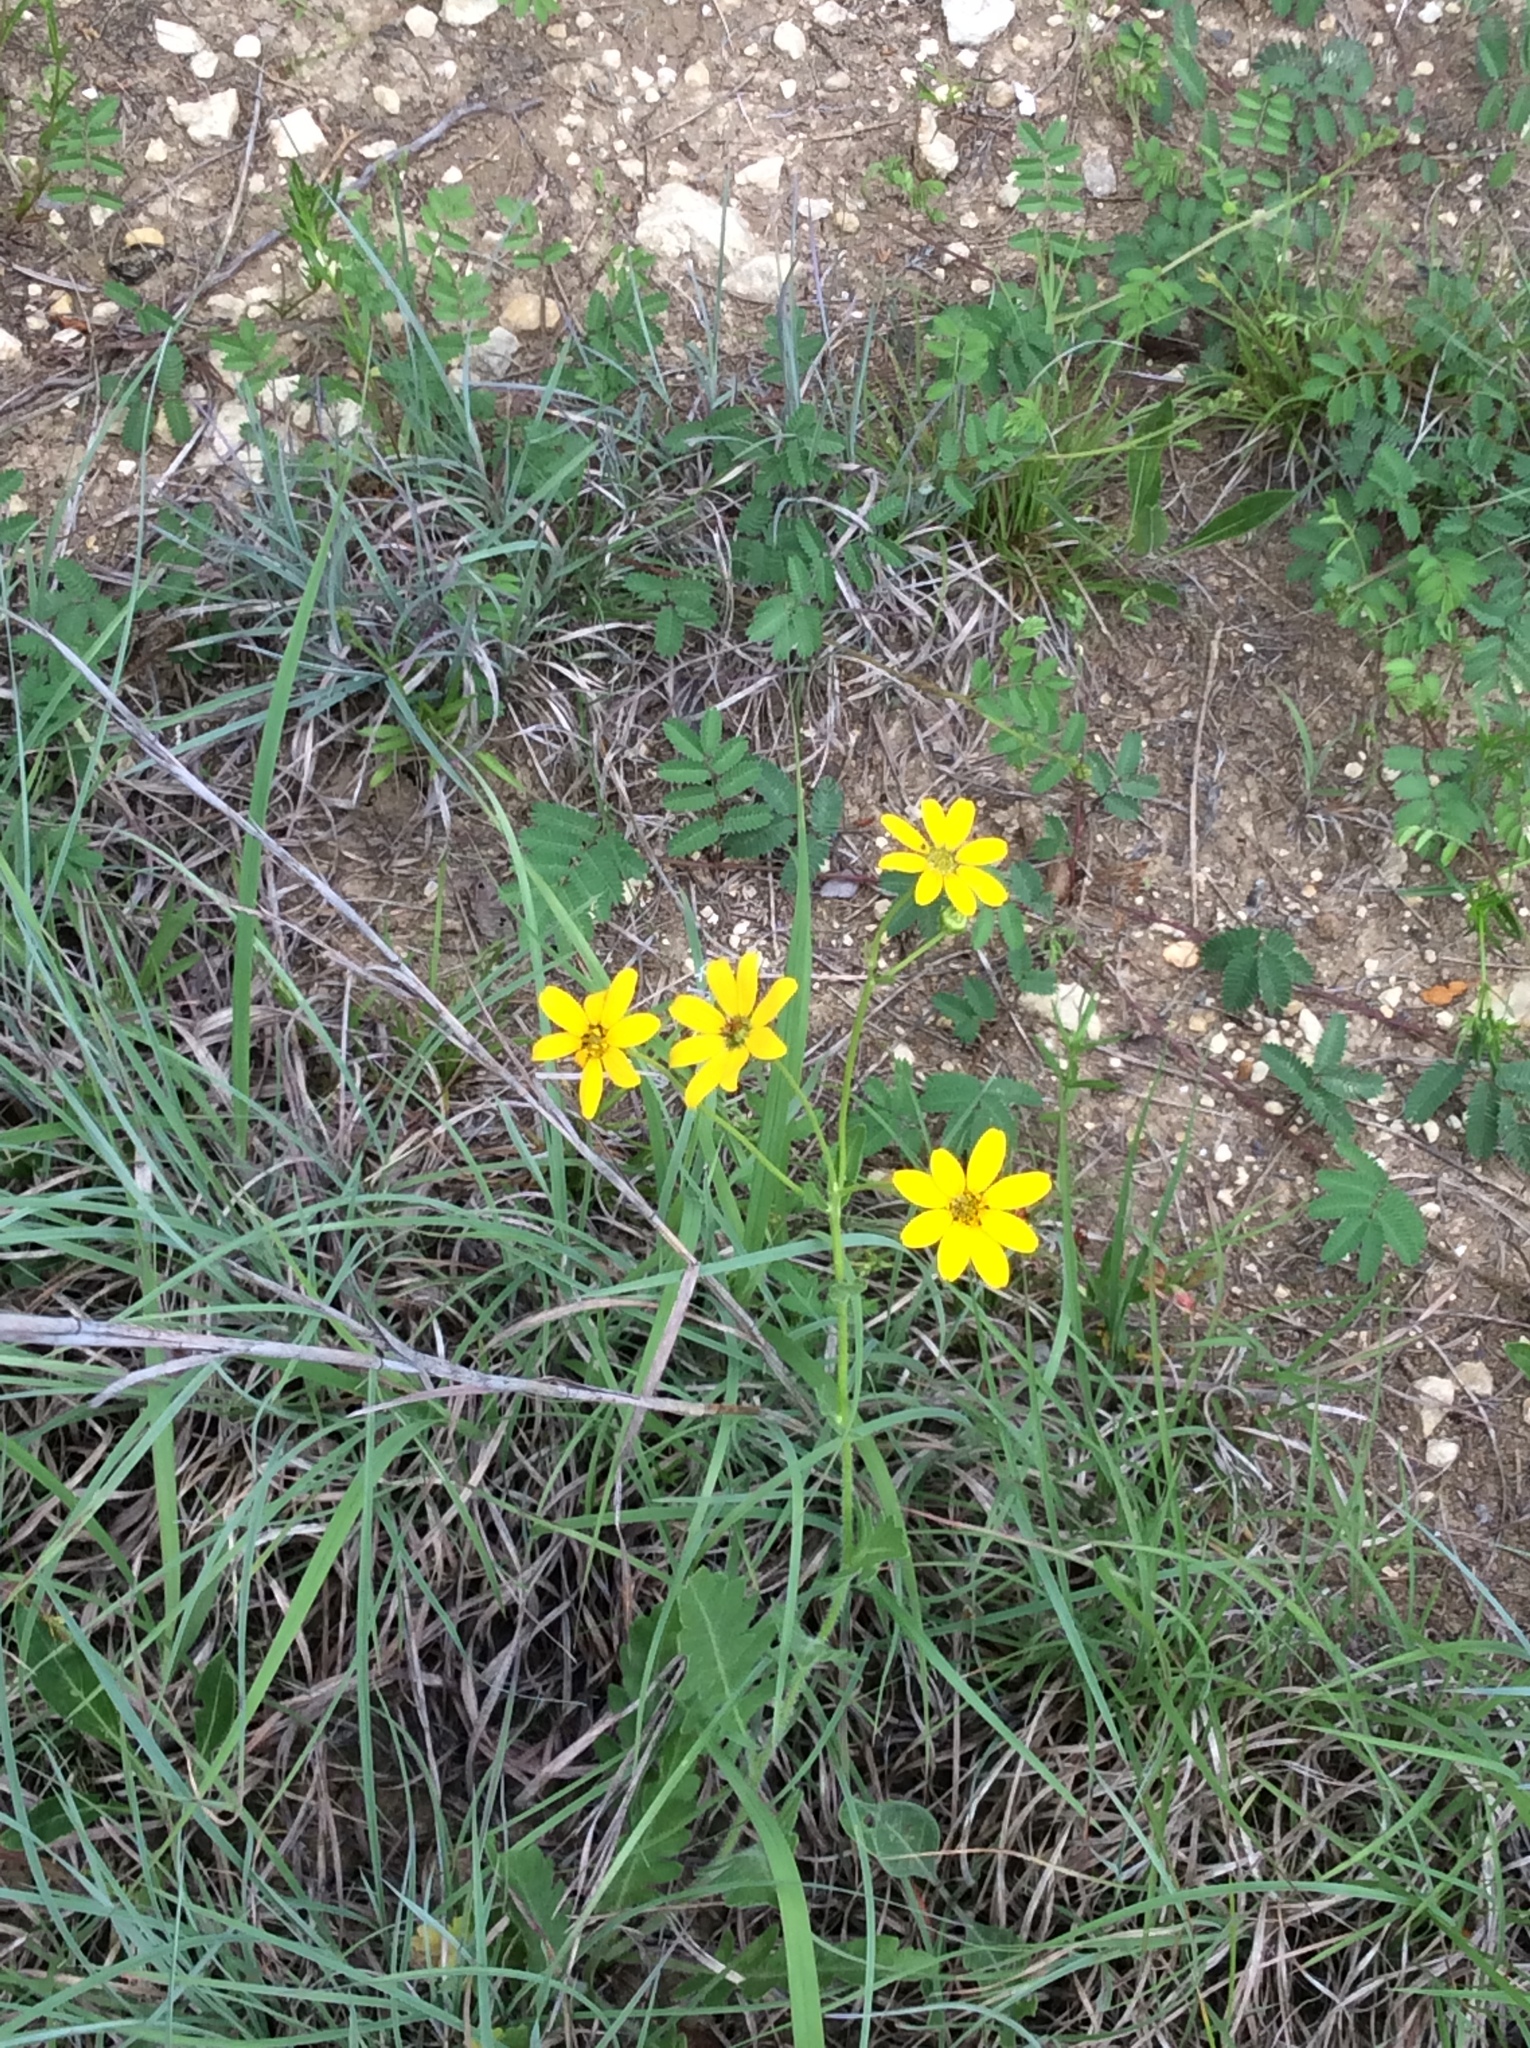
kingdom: Plantae
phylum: Tracheophyta
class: Magnoliopsida
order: Asterales
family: Asteraceae
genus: Engelmannia
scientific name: Engelmannia peristenia
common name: Engelmann's daisy
